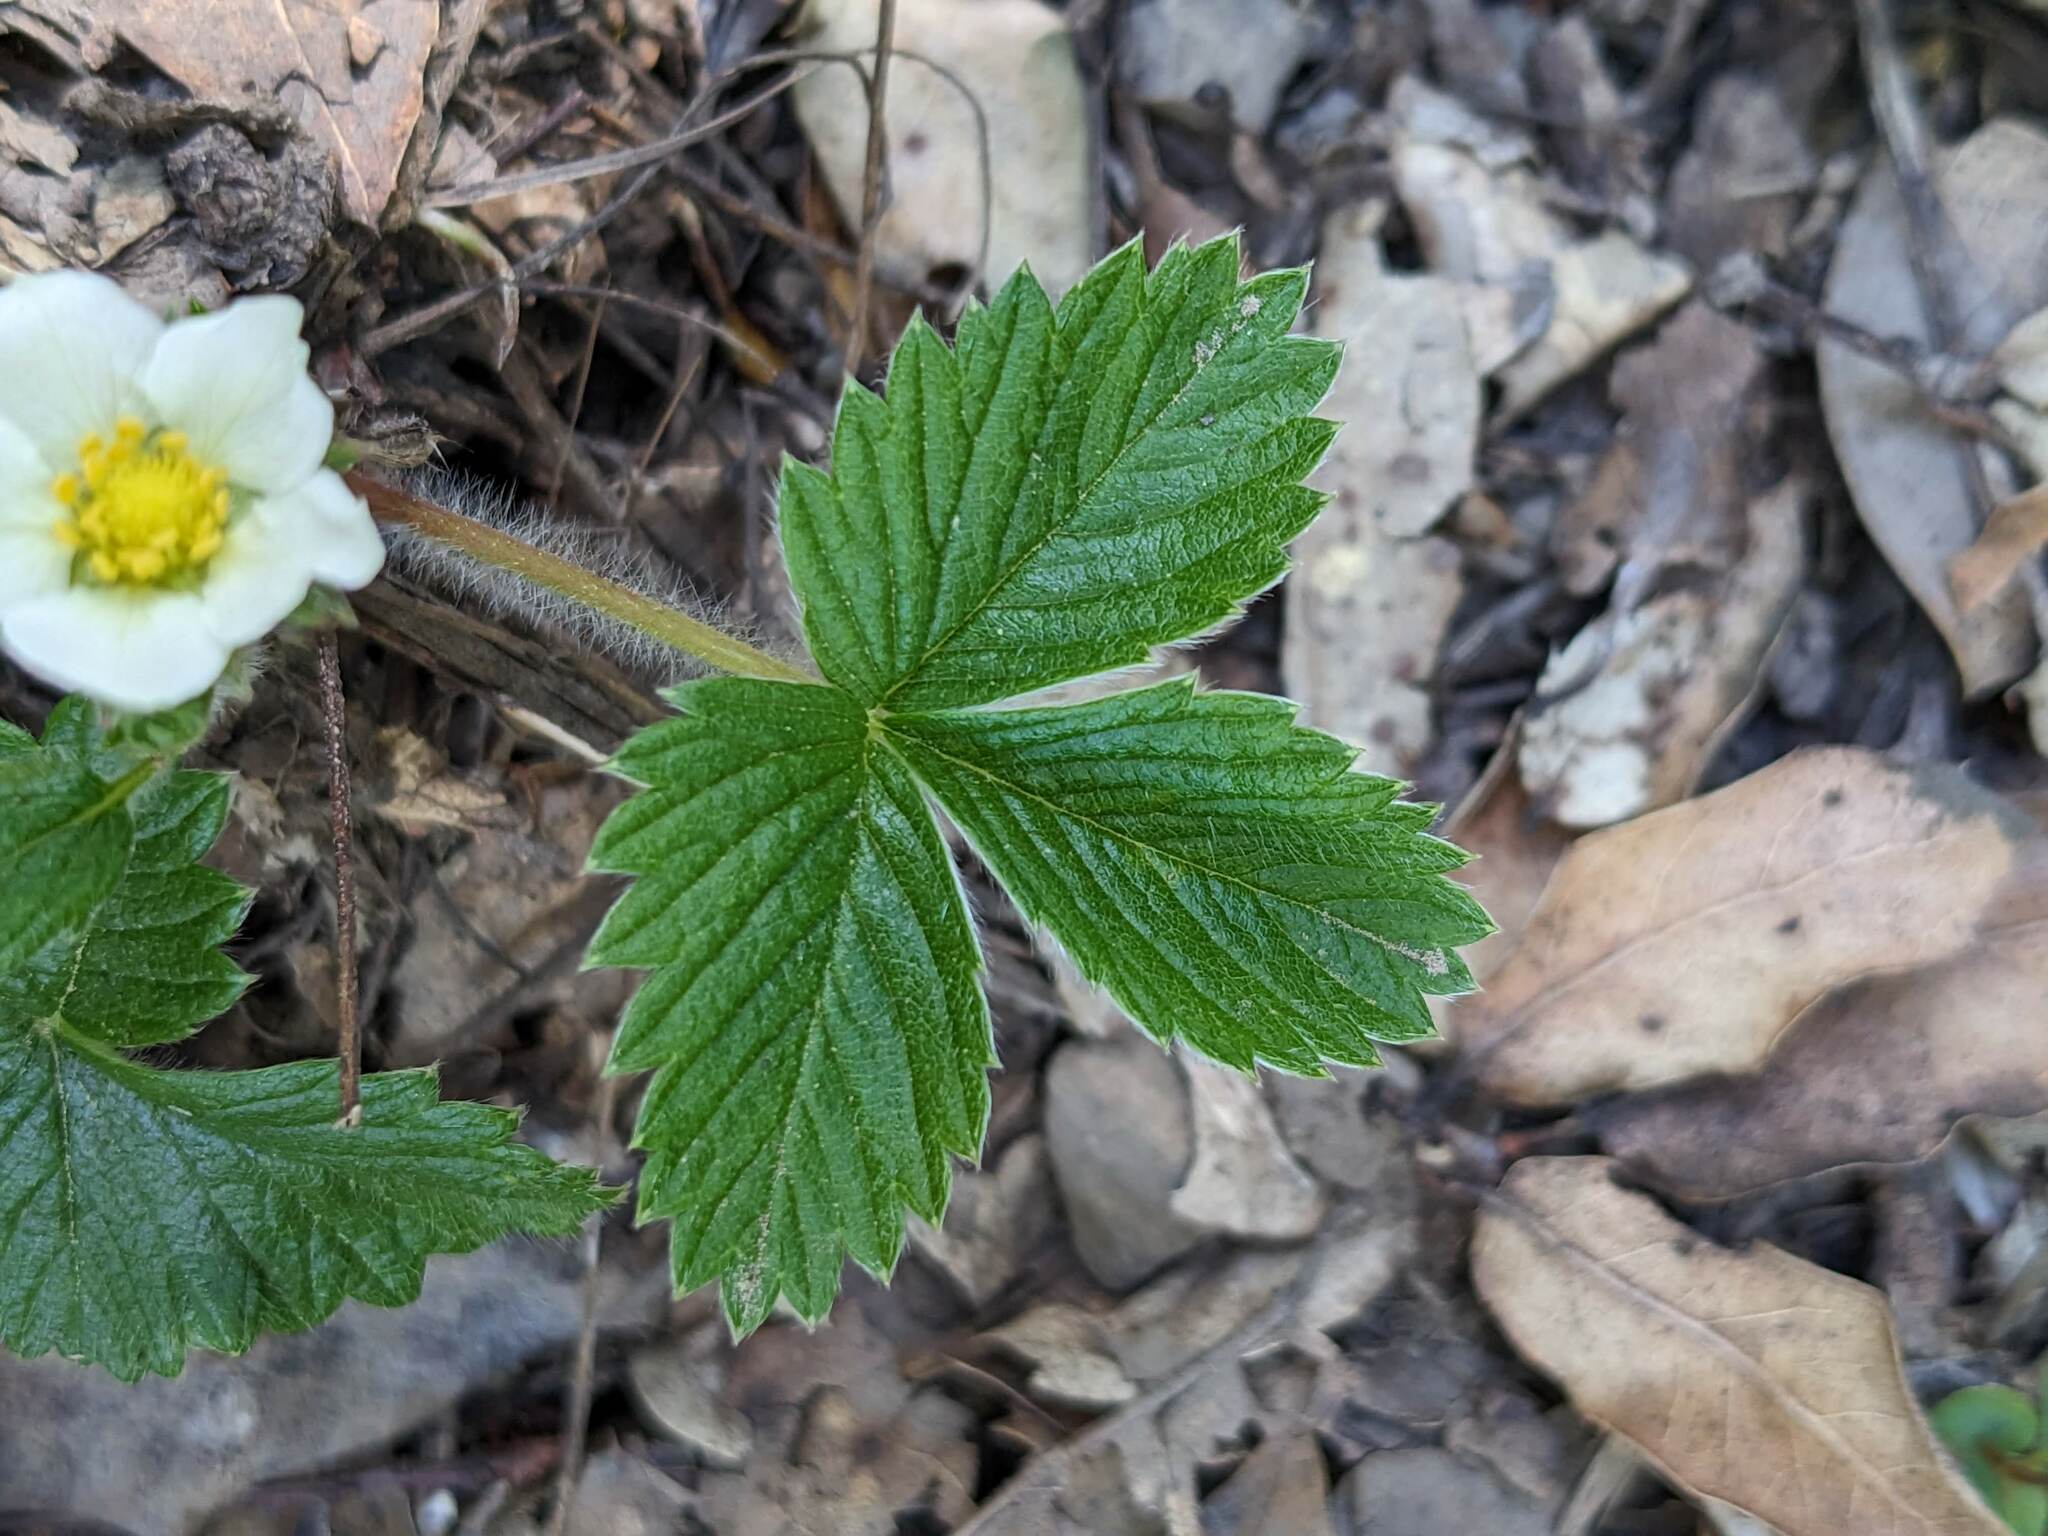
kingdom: Plantae
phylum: Tracheophyta
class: Magnoliopsida
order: Rosales
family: Rosaceae
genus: Fragaria
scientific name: Fragaria vesca
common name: Wild strawberry
